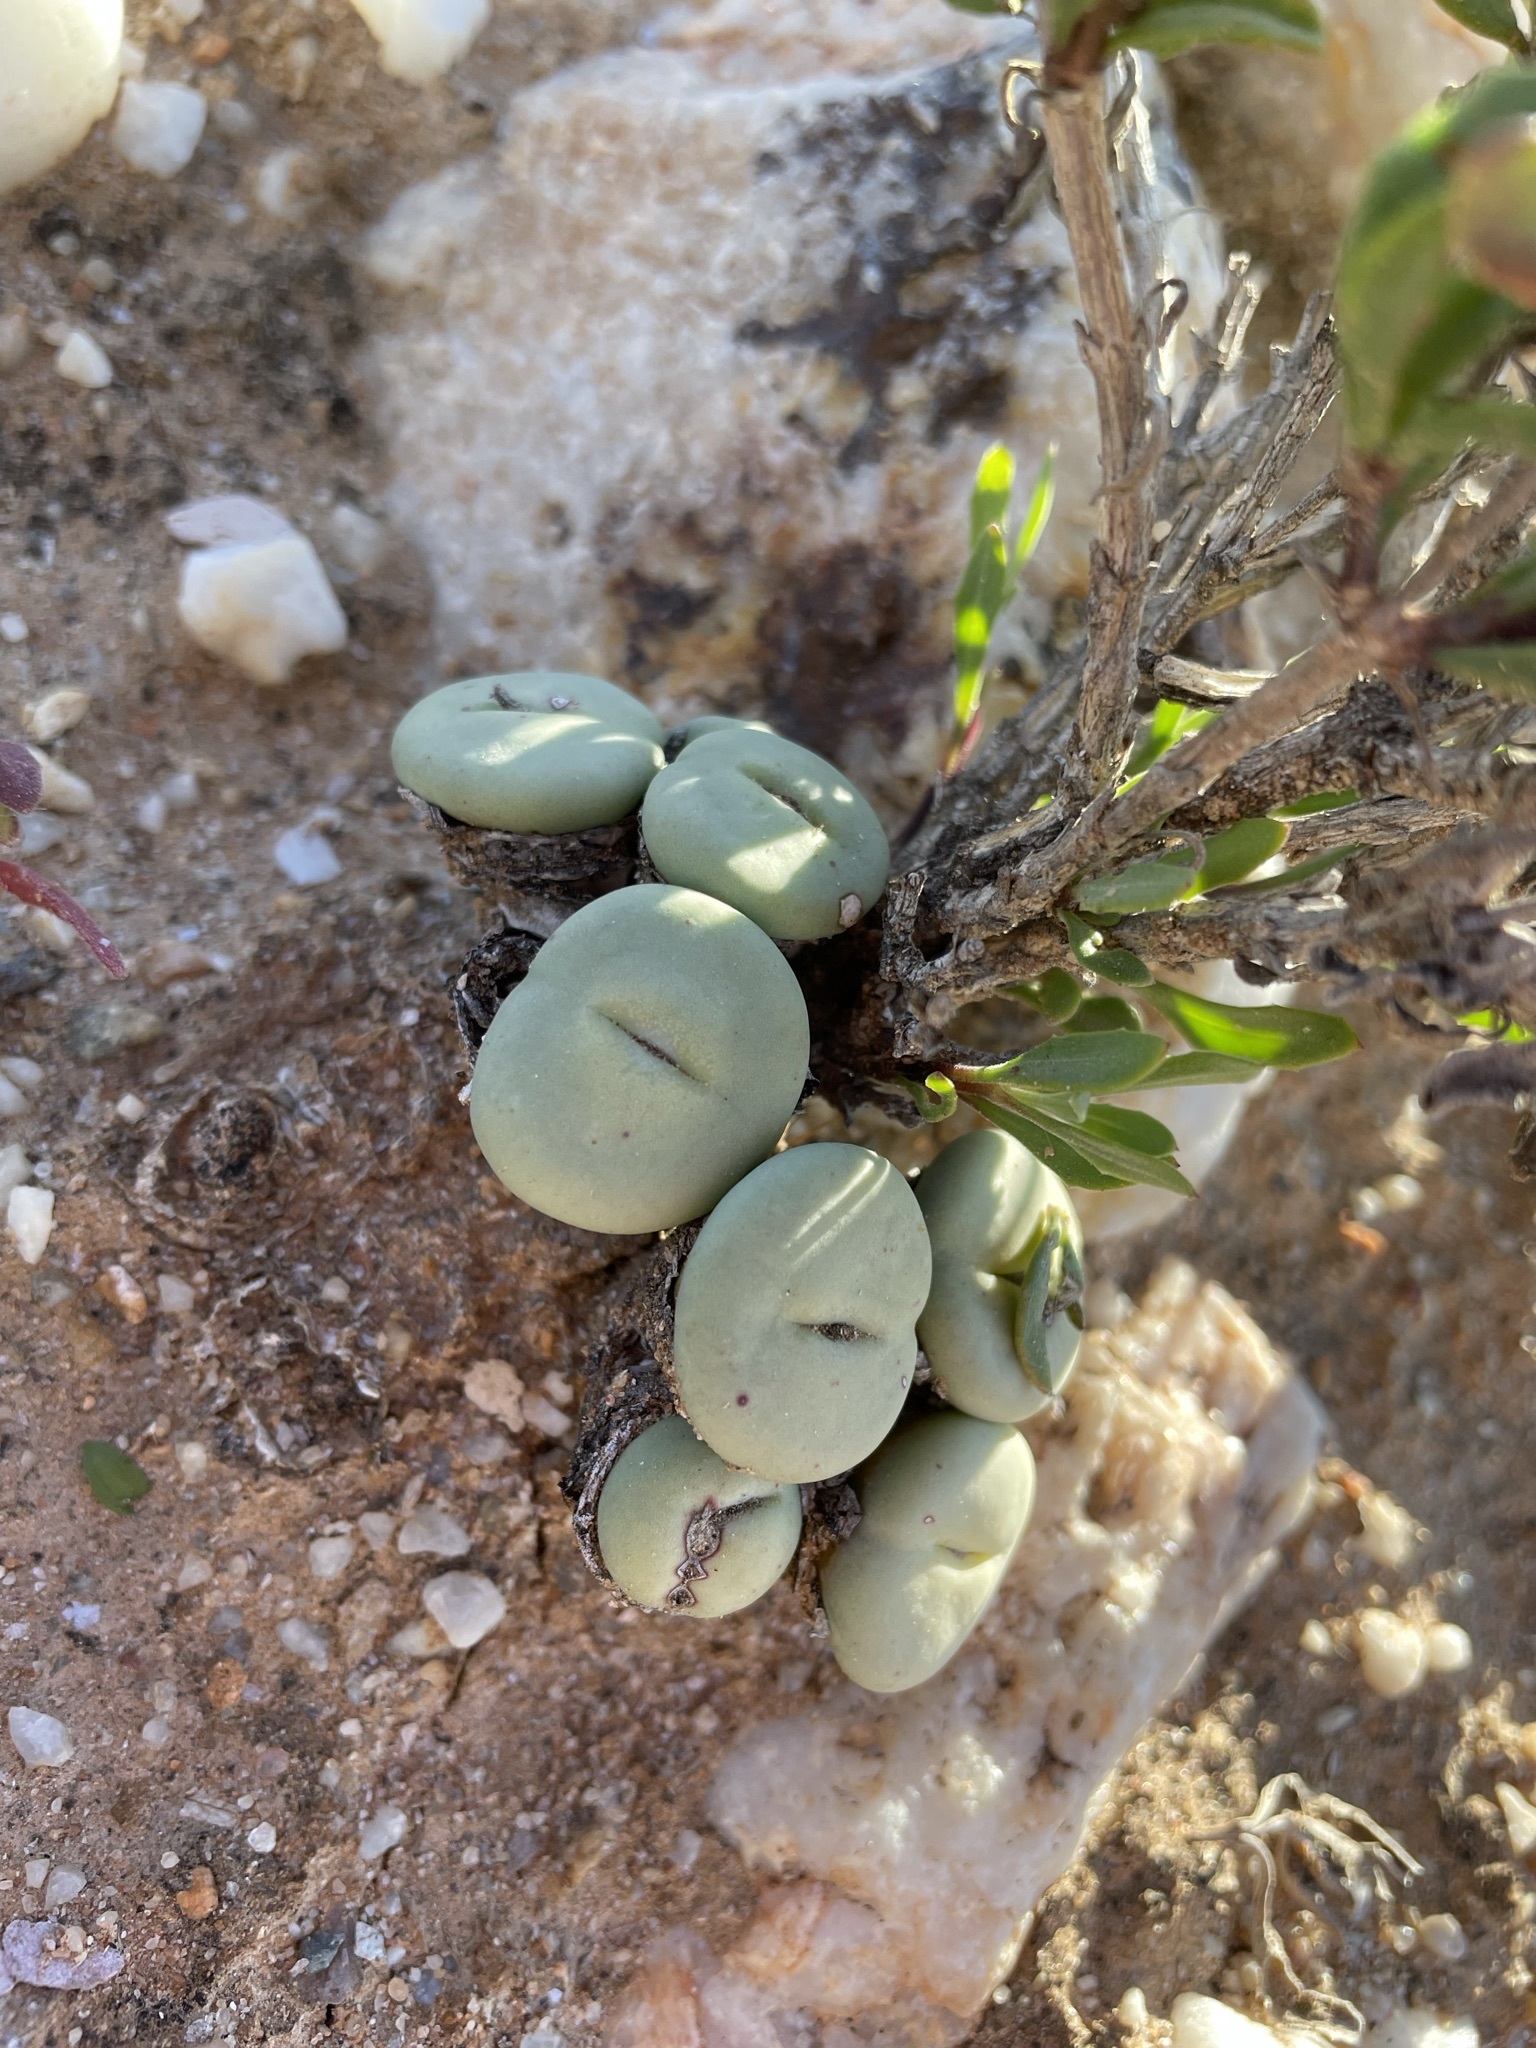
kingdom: Plantae
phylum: Tracheophyta
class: Magnoliopsida
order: Caryophyllales
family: Aizoaceae
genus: Conophytum
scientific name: Conophytum minutum
